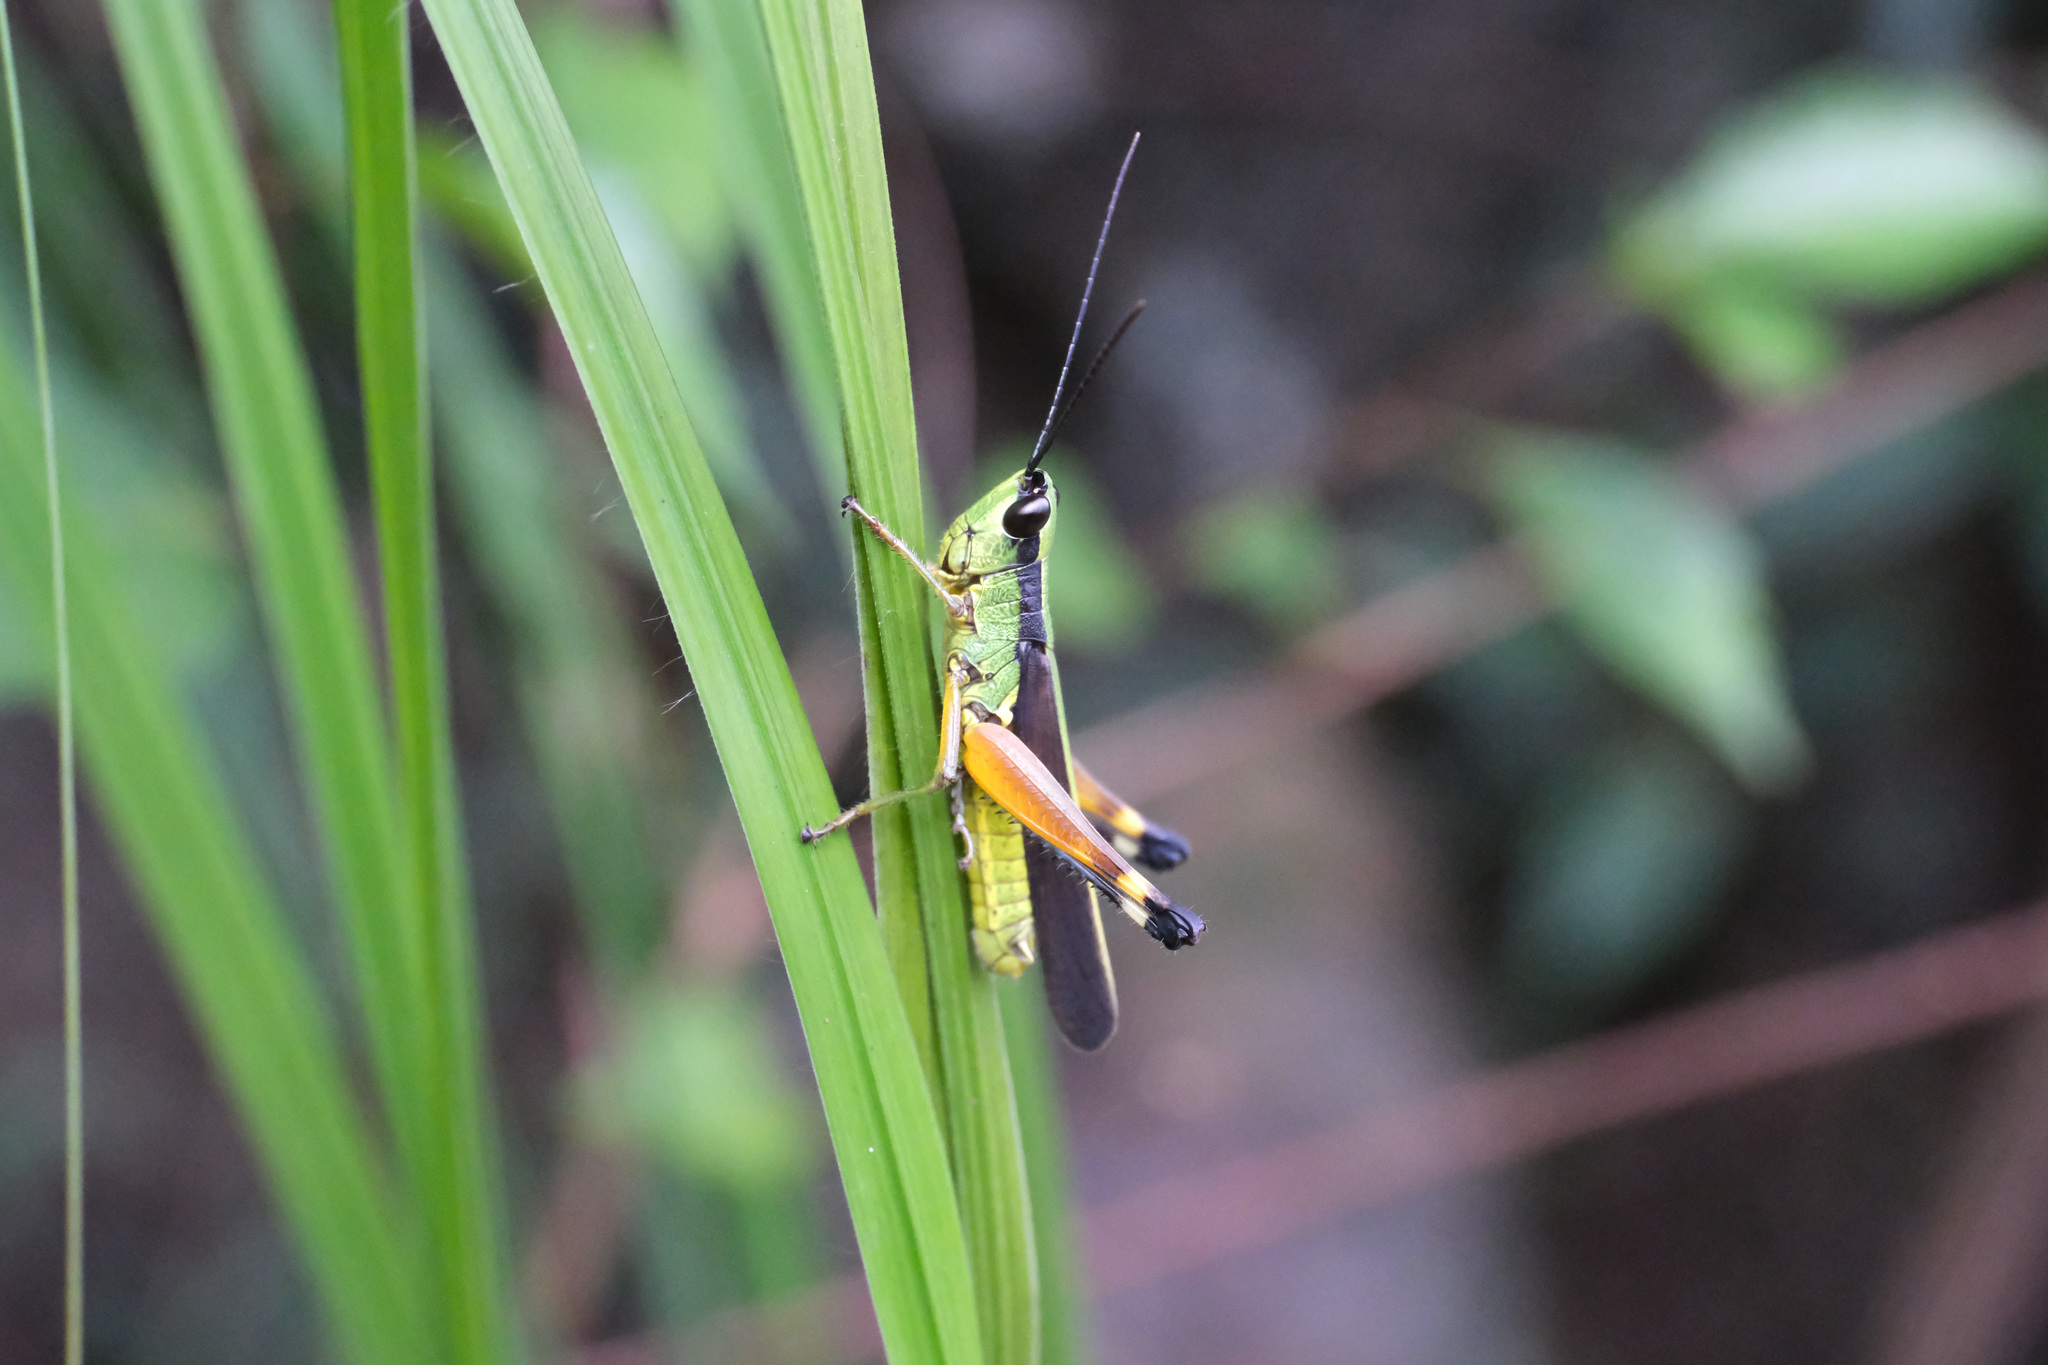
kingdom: Animalia
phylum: Arthropoda
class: Insecta
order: Orthoptera
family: Acrididae
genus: Ceracris
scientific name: Ceracris nigricornis
